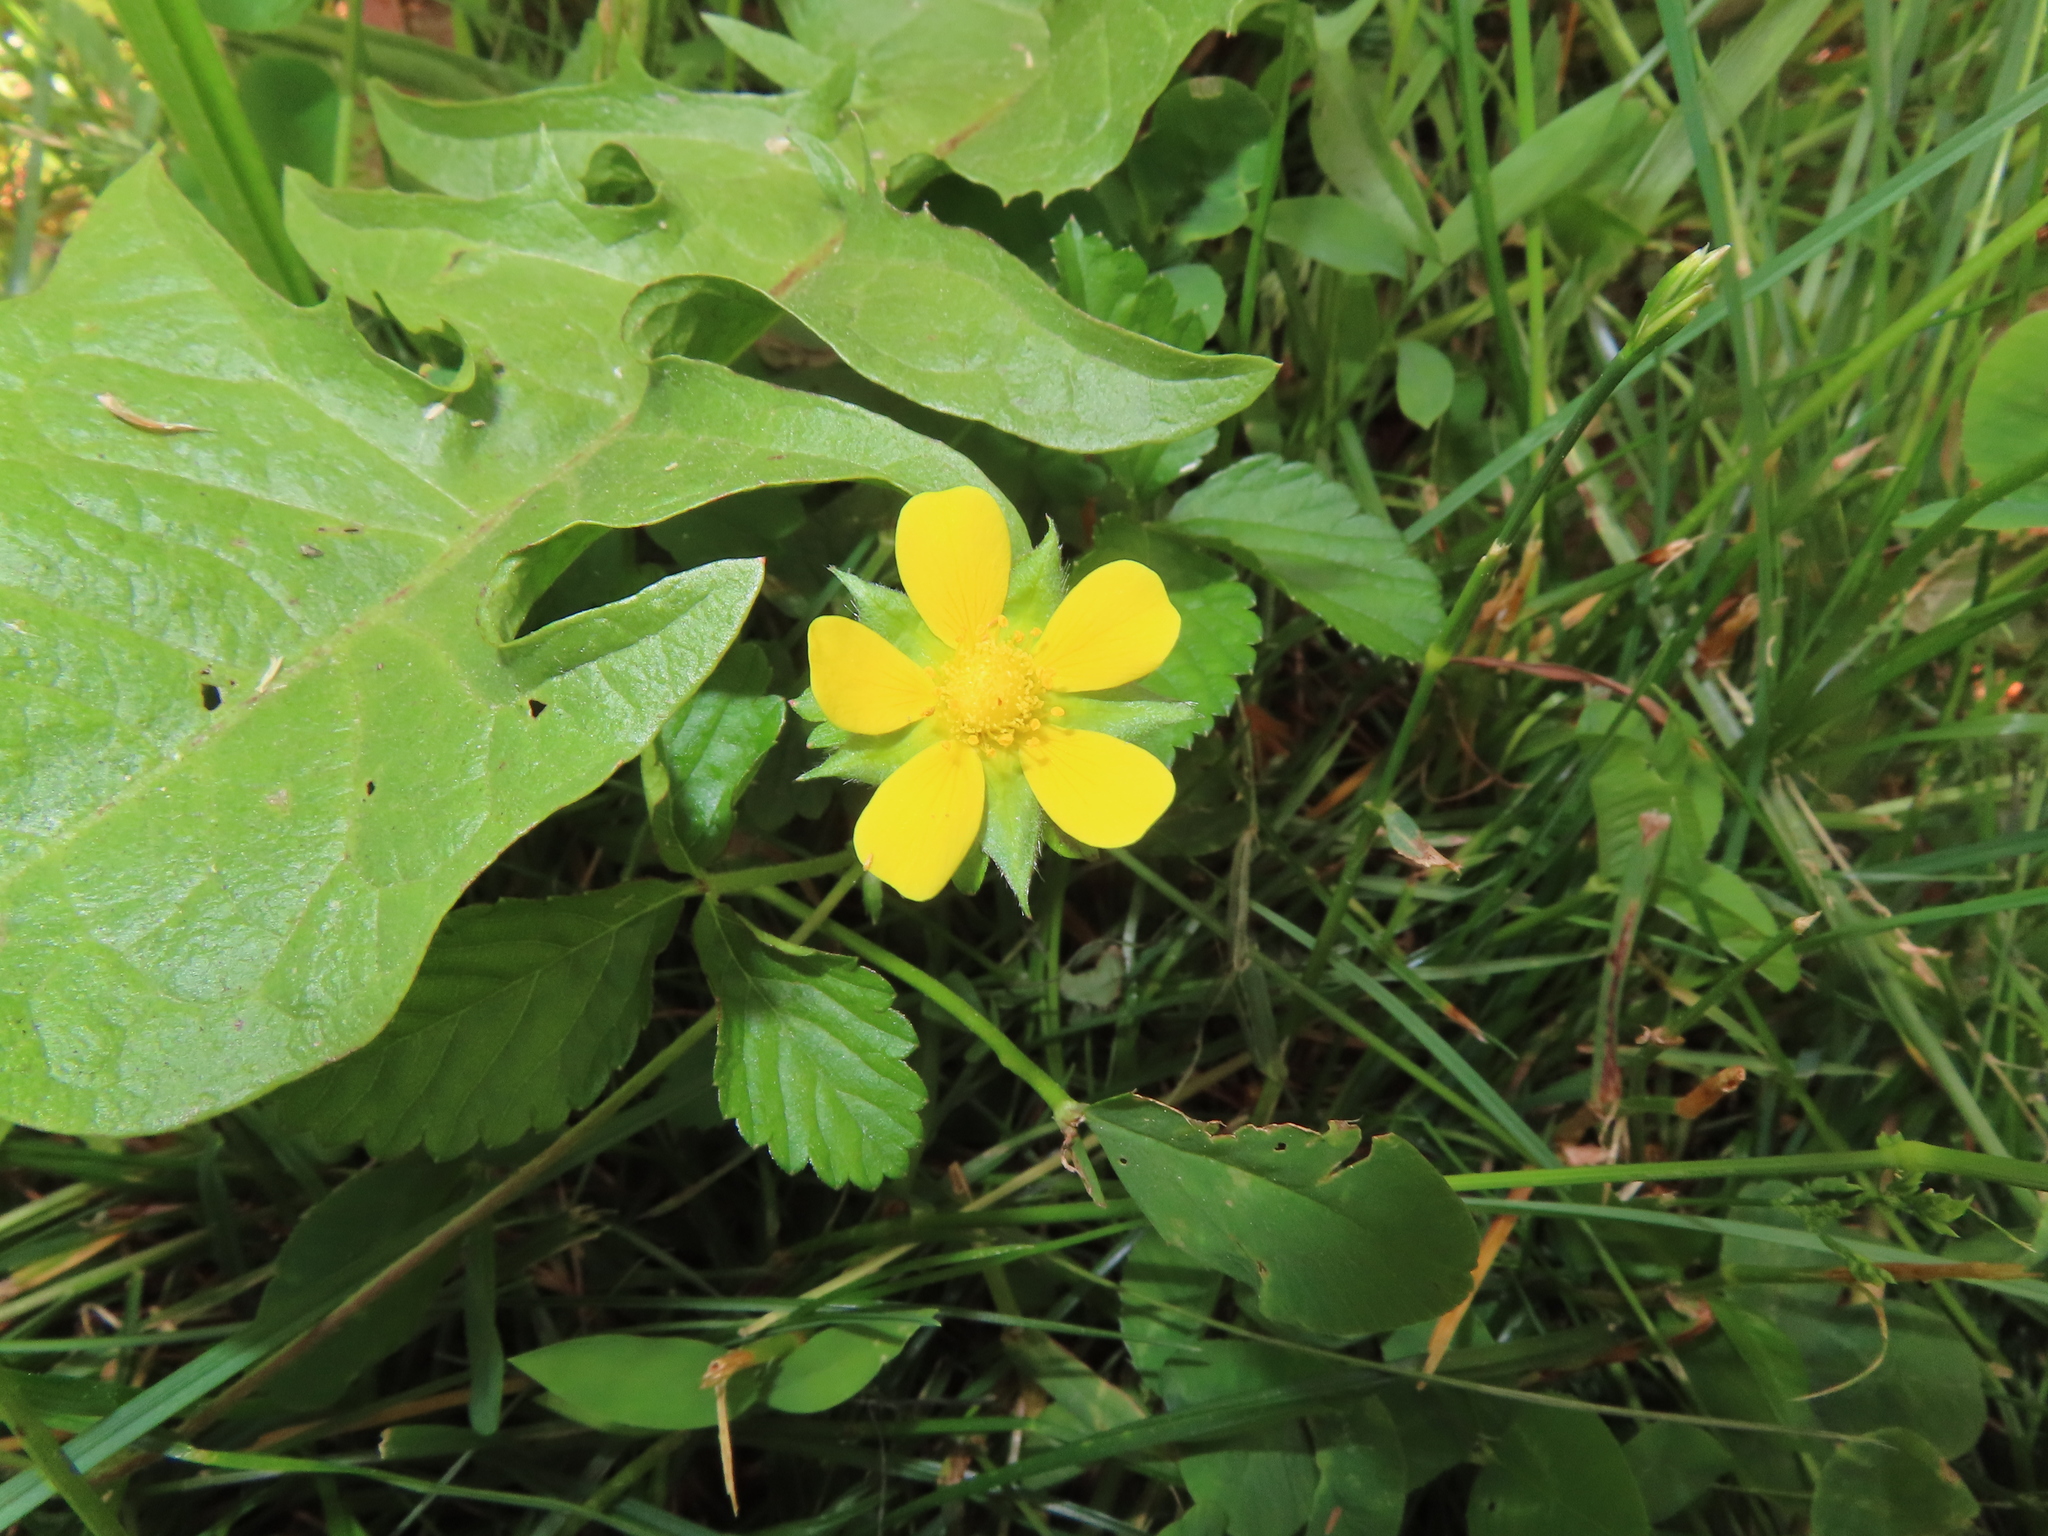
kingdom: Plantae
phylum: Tracheophyta
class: Magnoliopsida
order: Rosales
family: Rosaceae
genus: Potentilla
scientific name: Potentilla indica
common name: Yellow-flowered strawberry
